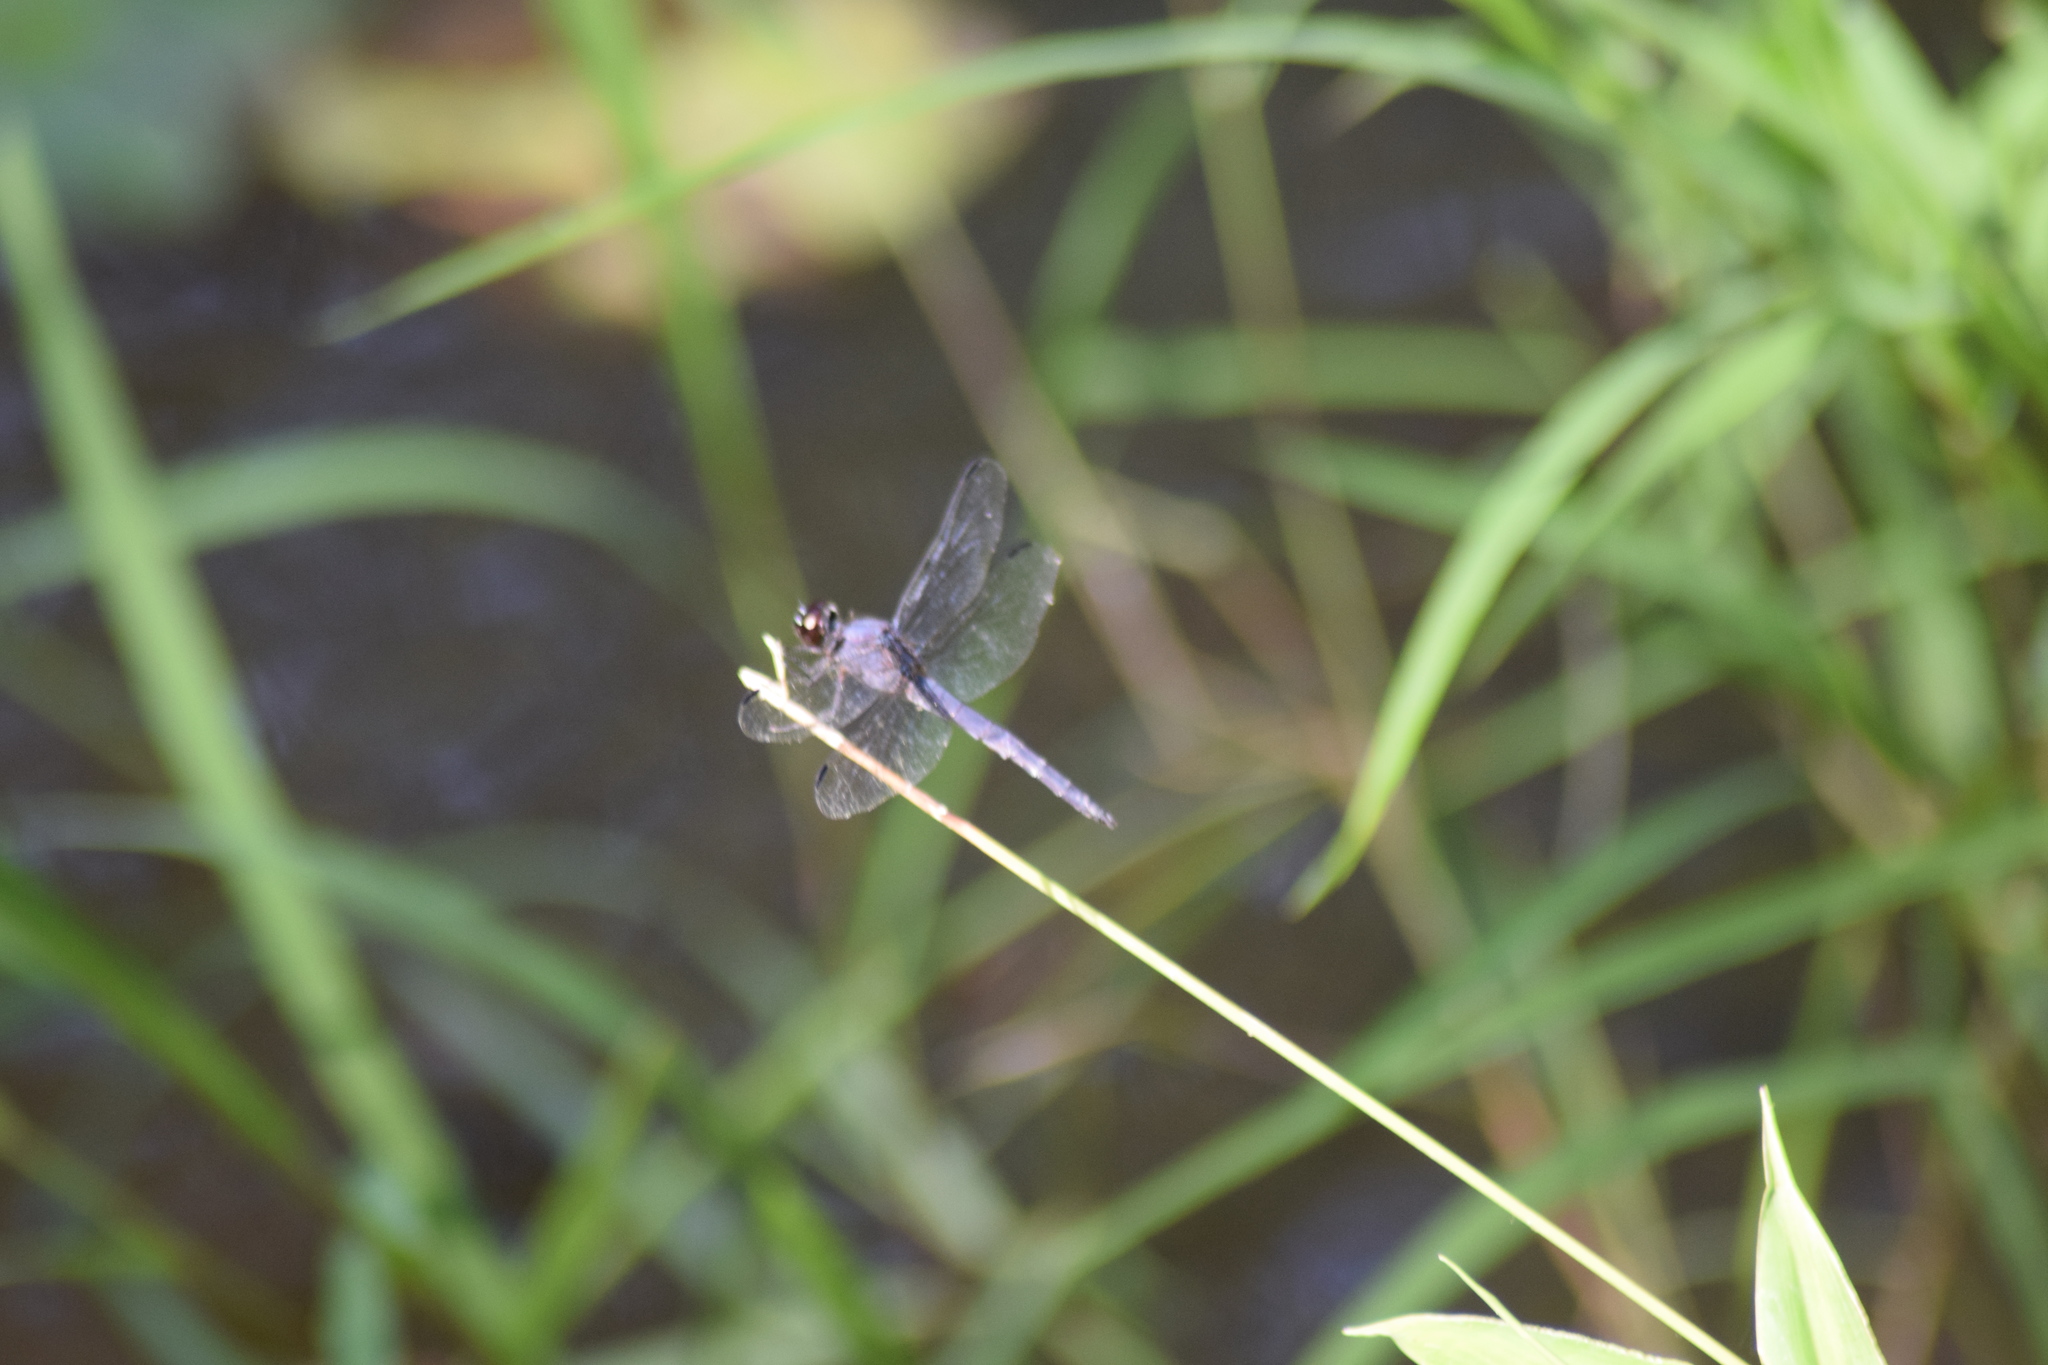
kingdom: Animalia
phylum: Arthropoda
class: Insecta
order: Odonata
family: Libellulidae
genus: Libellula
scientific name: Libellula incesta
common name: Slaty skimmer
